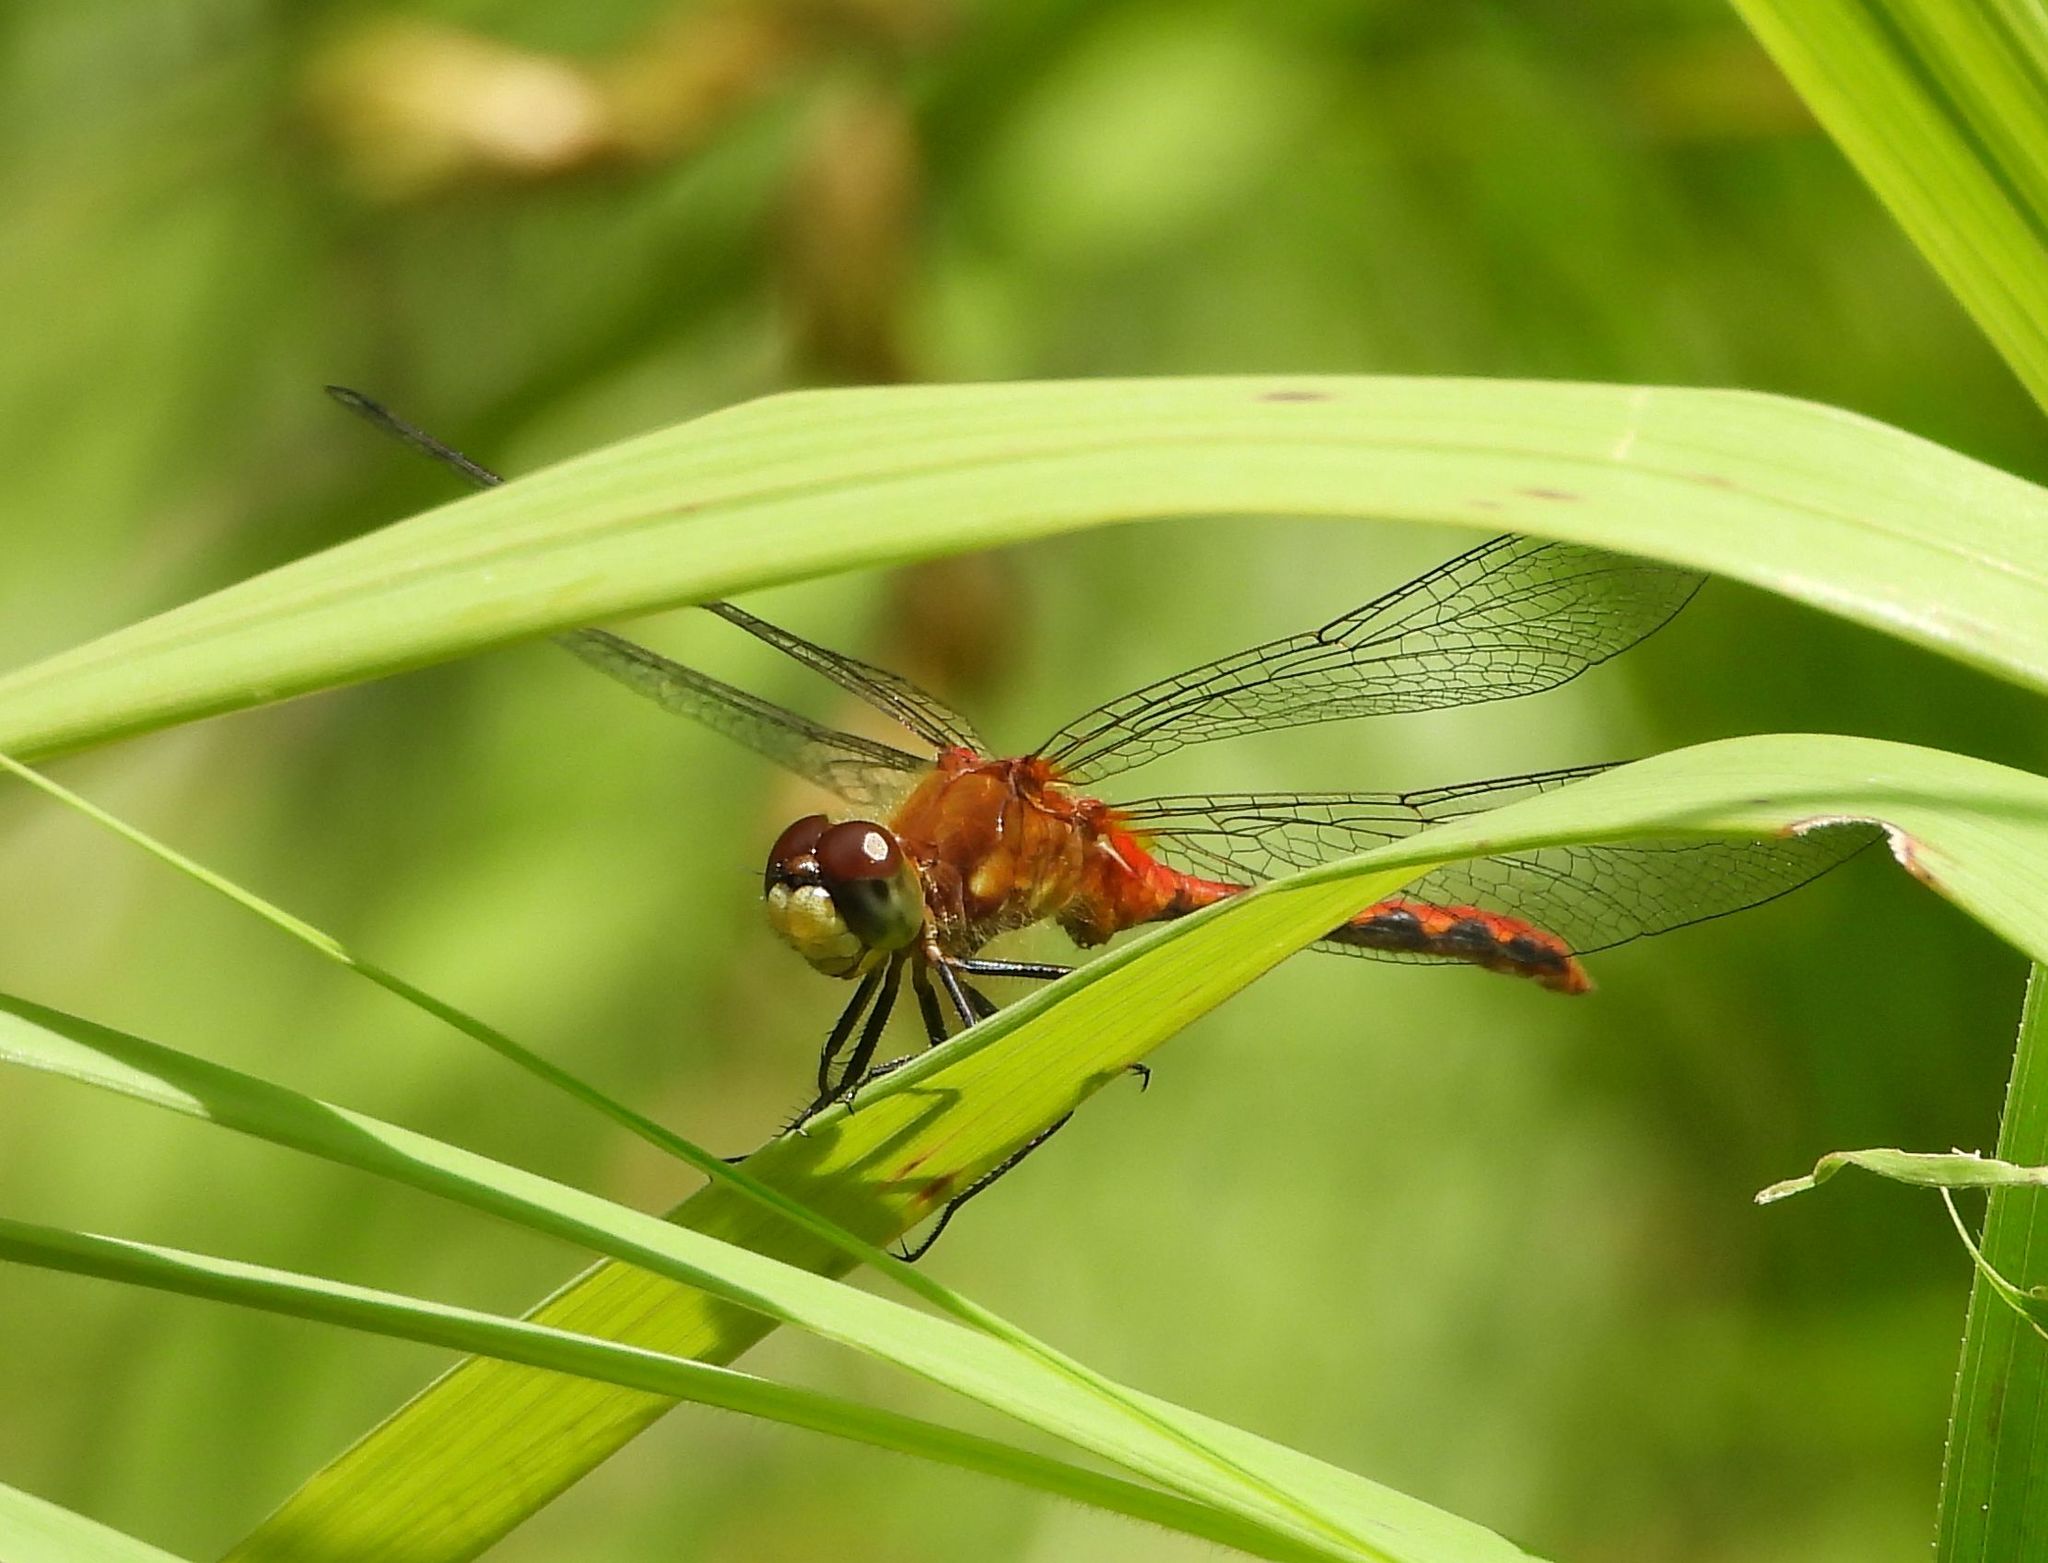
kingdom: Animalia
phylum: Arthropoda
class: Insecta
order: Odonata
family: Libellulidae
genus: Sympetrum
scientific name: Sympetrum obtrusum
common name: White-faced meadowhawk
